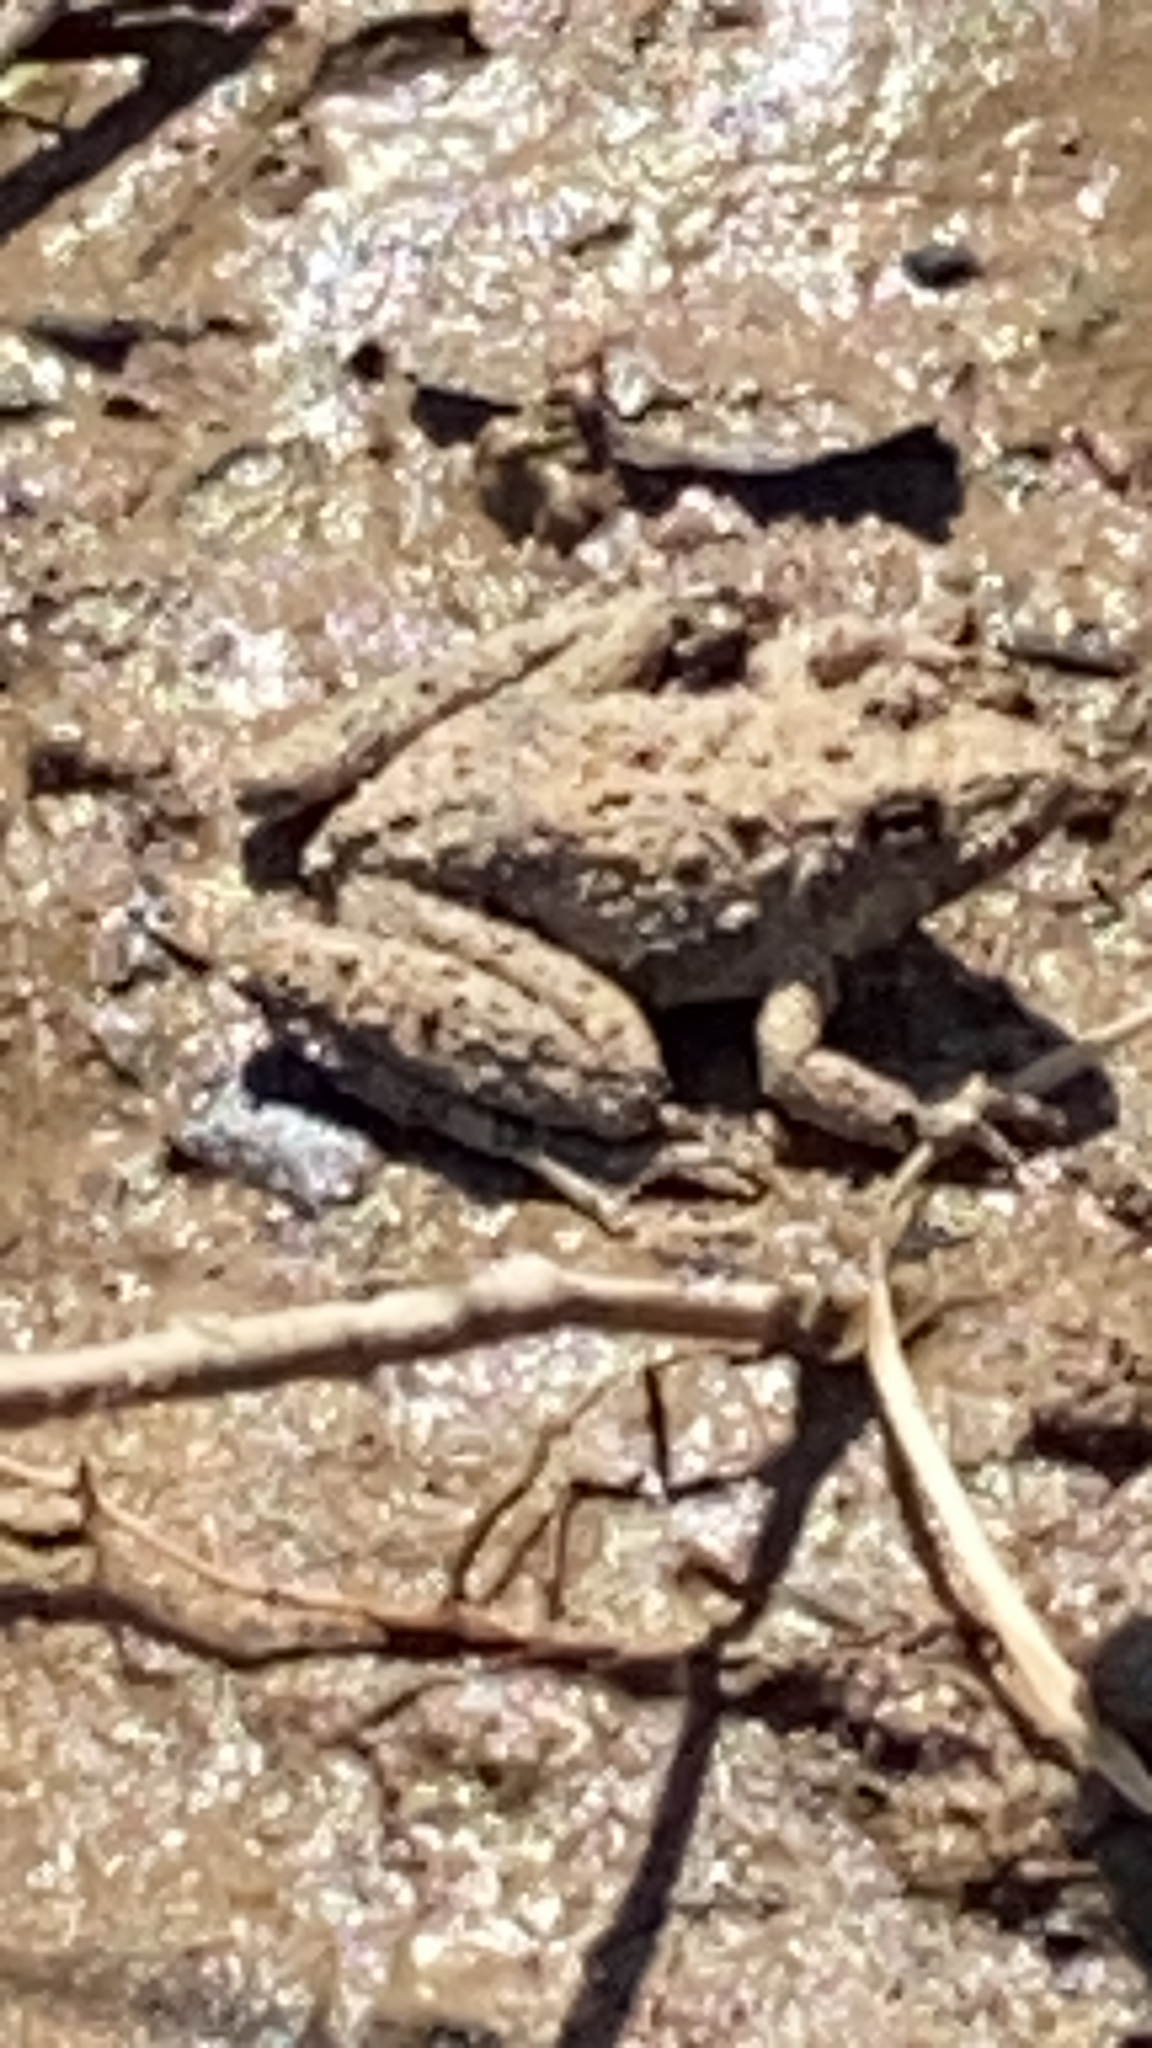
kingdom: Animalia
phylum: Chordata
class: Amphibia
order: Anura
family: Hylidae
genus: Acris
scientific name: Acris blanchardi
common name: Blanchard's cricket frog
